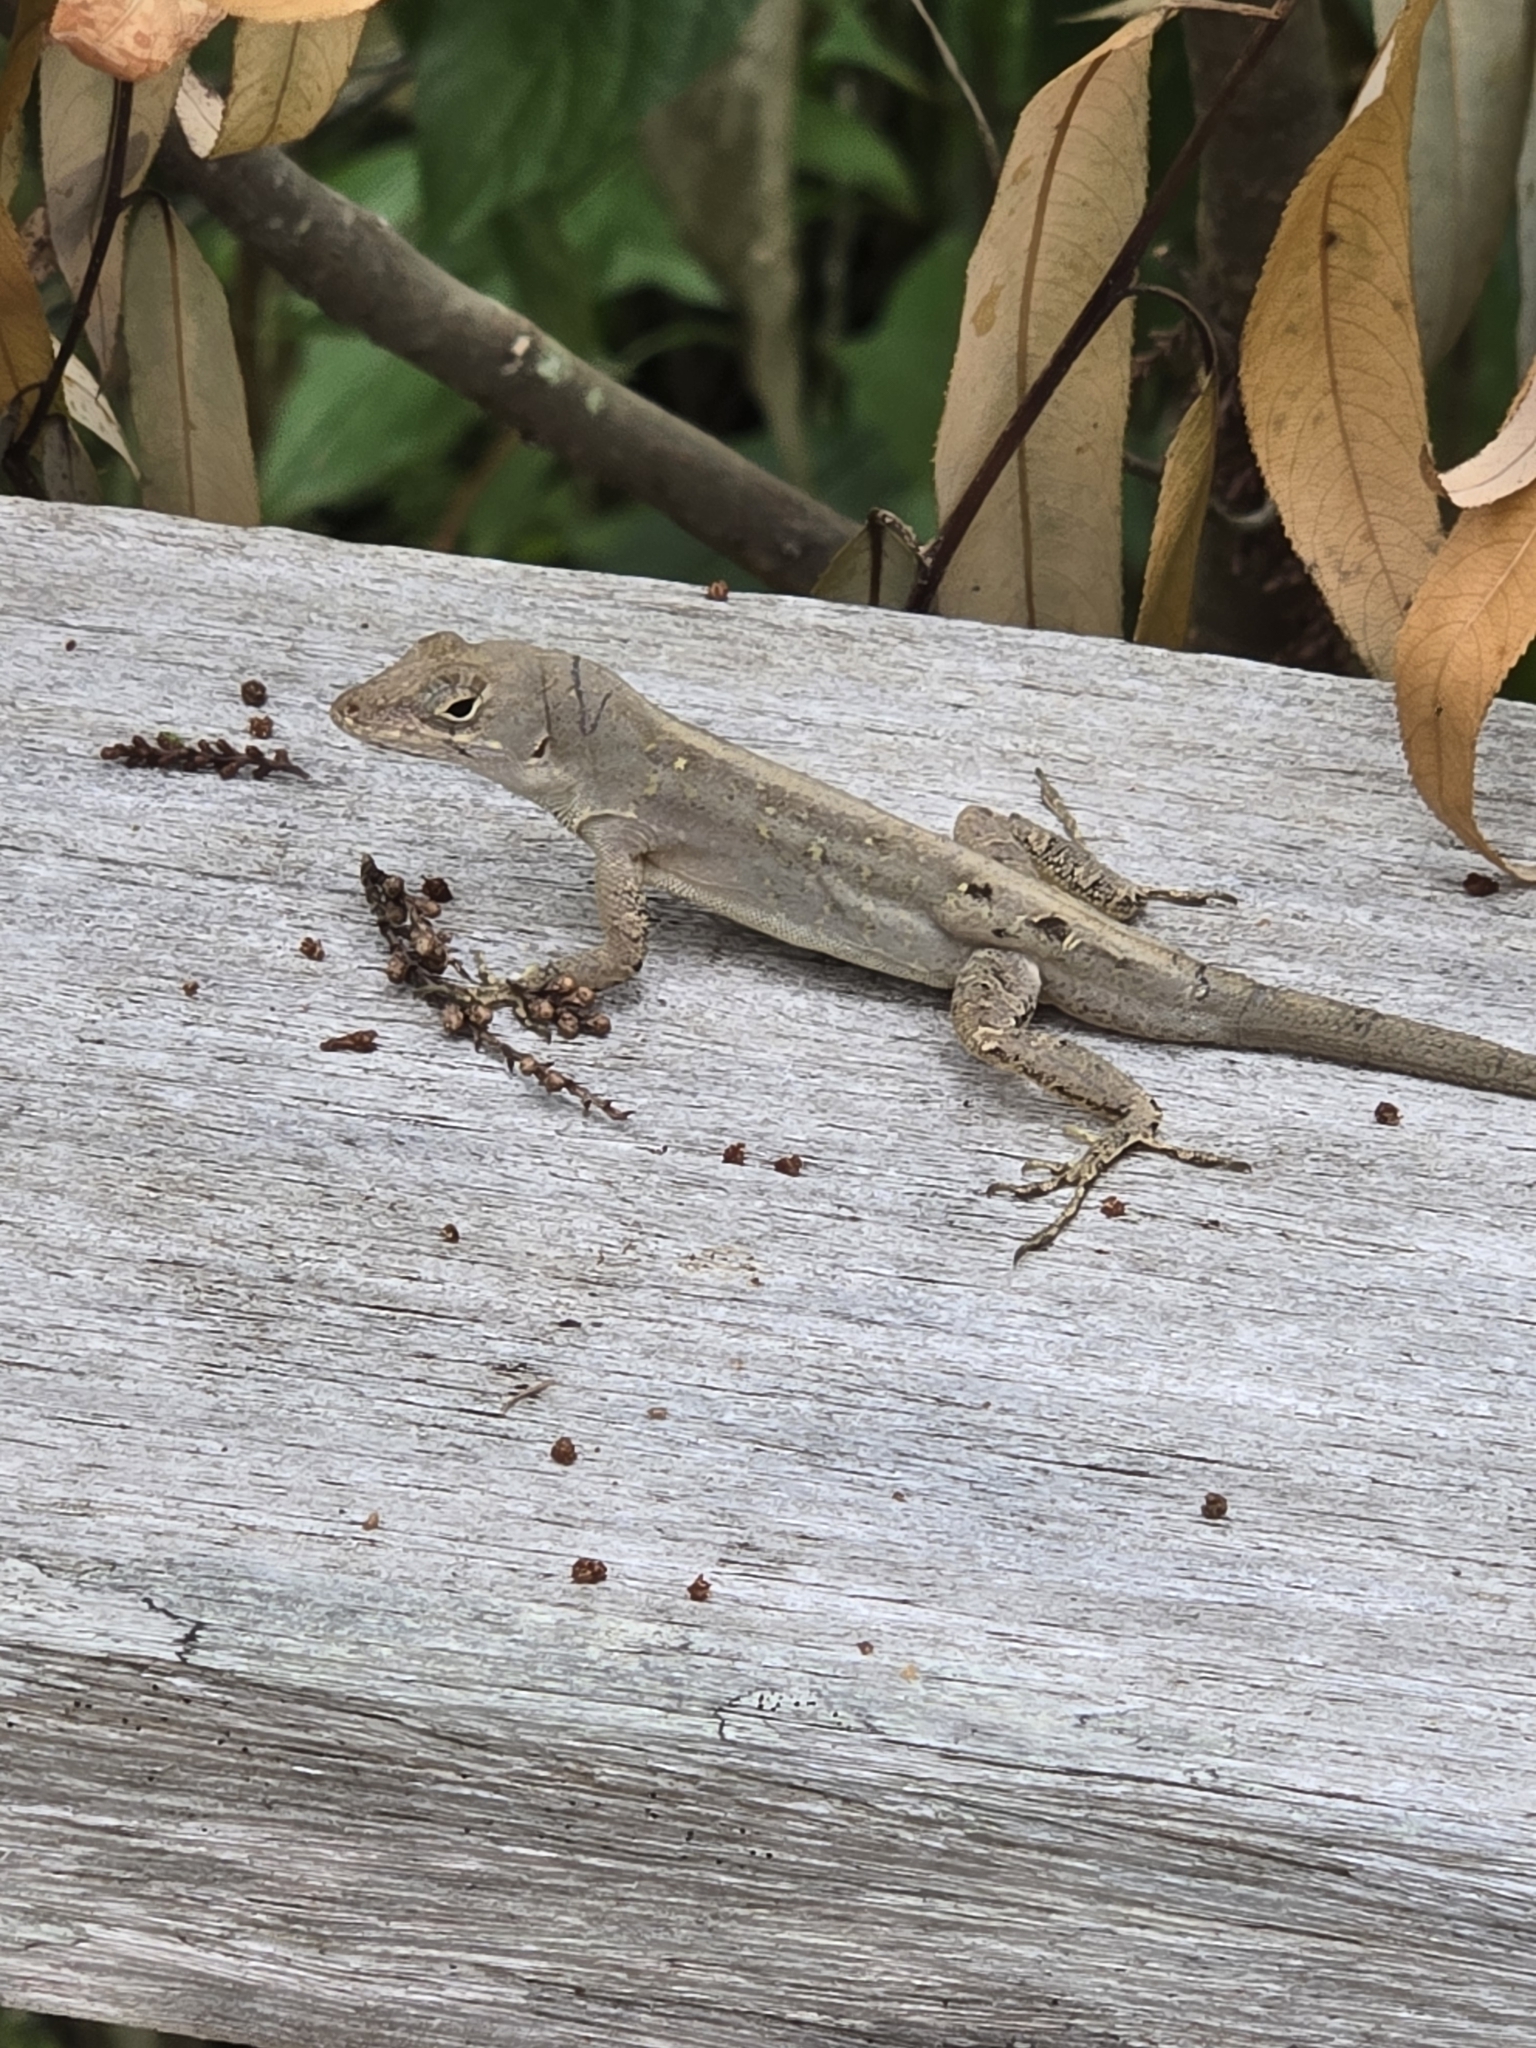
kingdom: Animalia
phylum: Chordata
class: Squamata
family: Dactyloidae
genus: Anolis
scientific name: Anolis sagrei
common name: Brown anole
